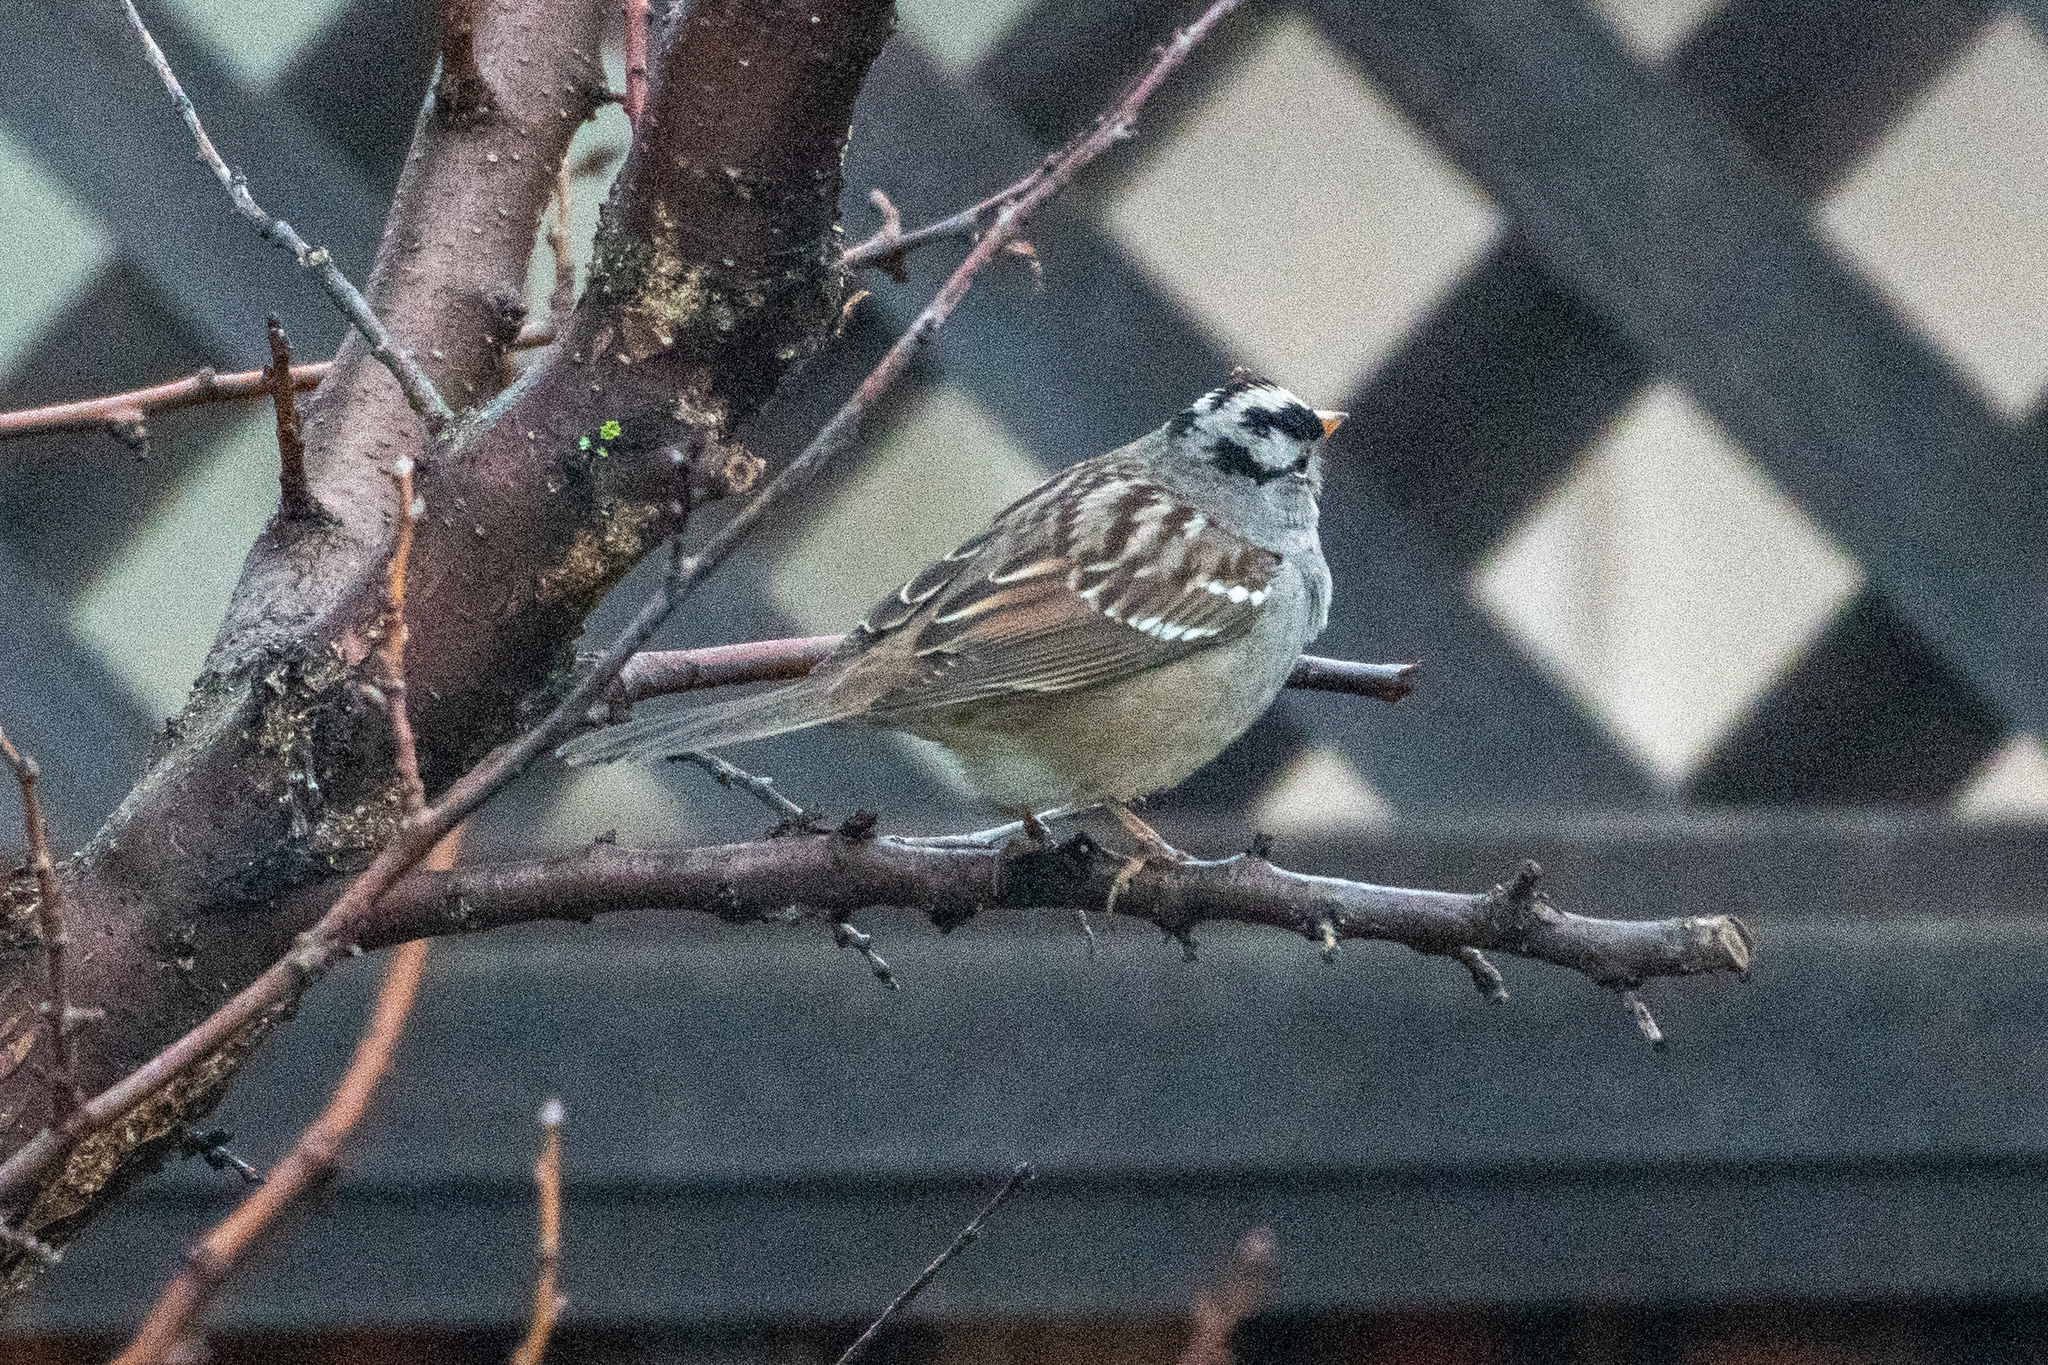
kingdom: Animalia
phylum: Chordata
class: Aves
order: Passeriformes
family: Passerellidae
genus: Zonotrichia
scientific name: Zonotrichia leucophrys
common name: White-crowned sparrow
